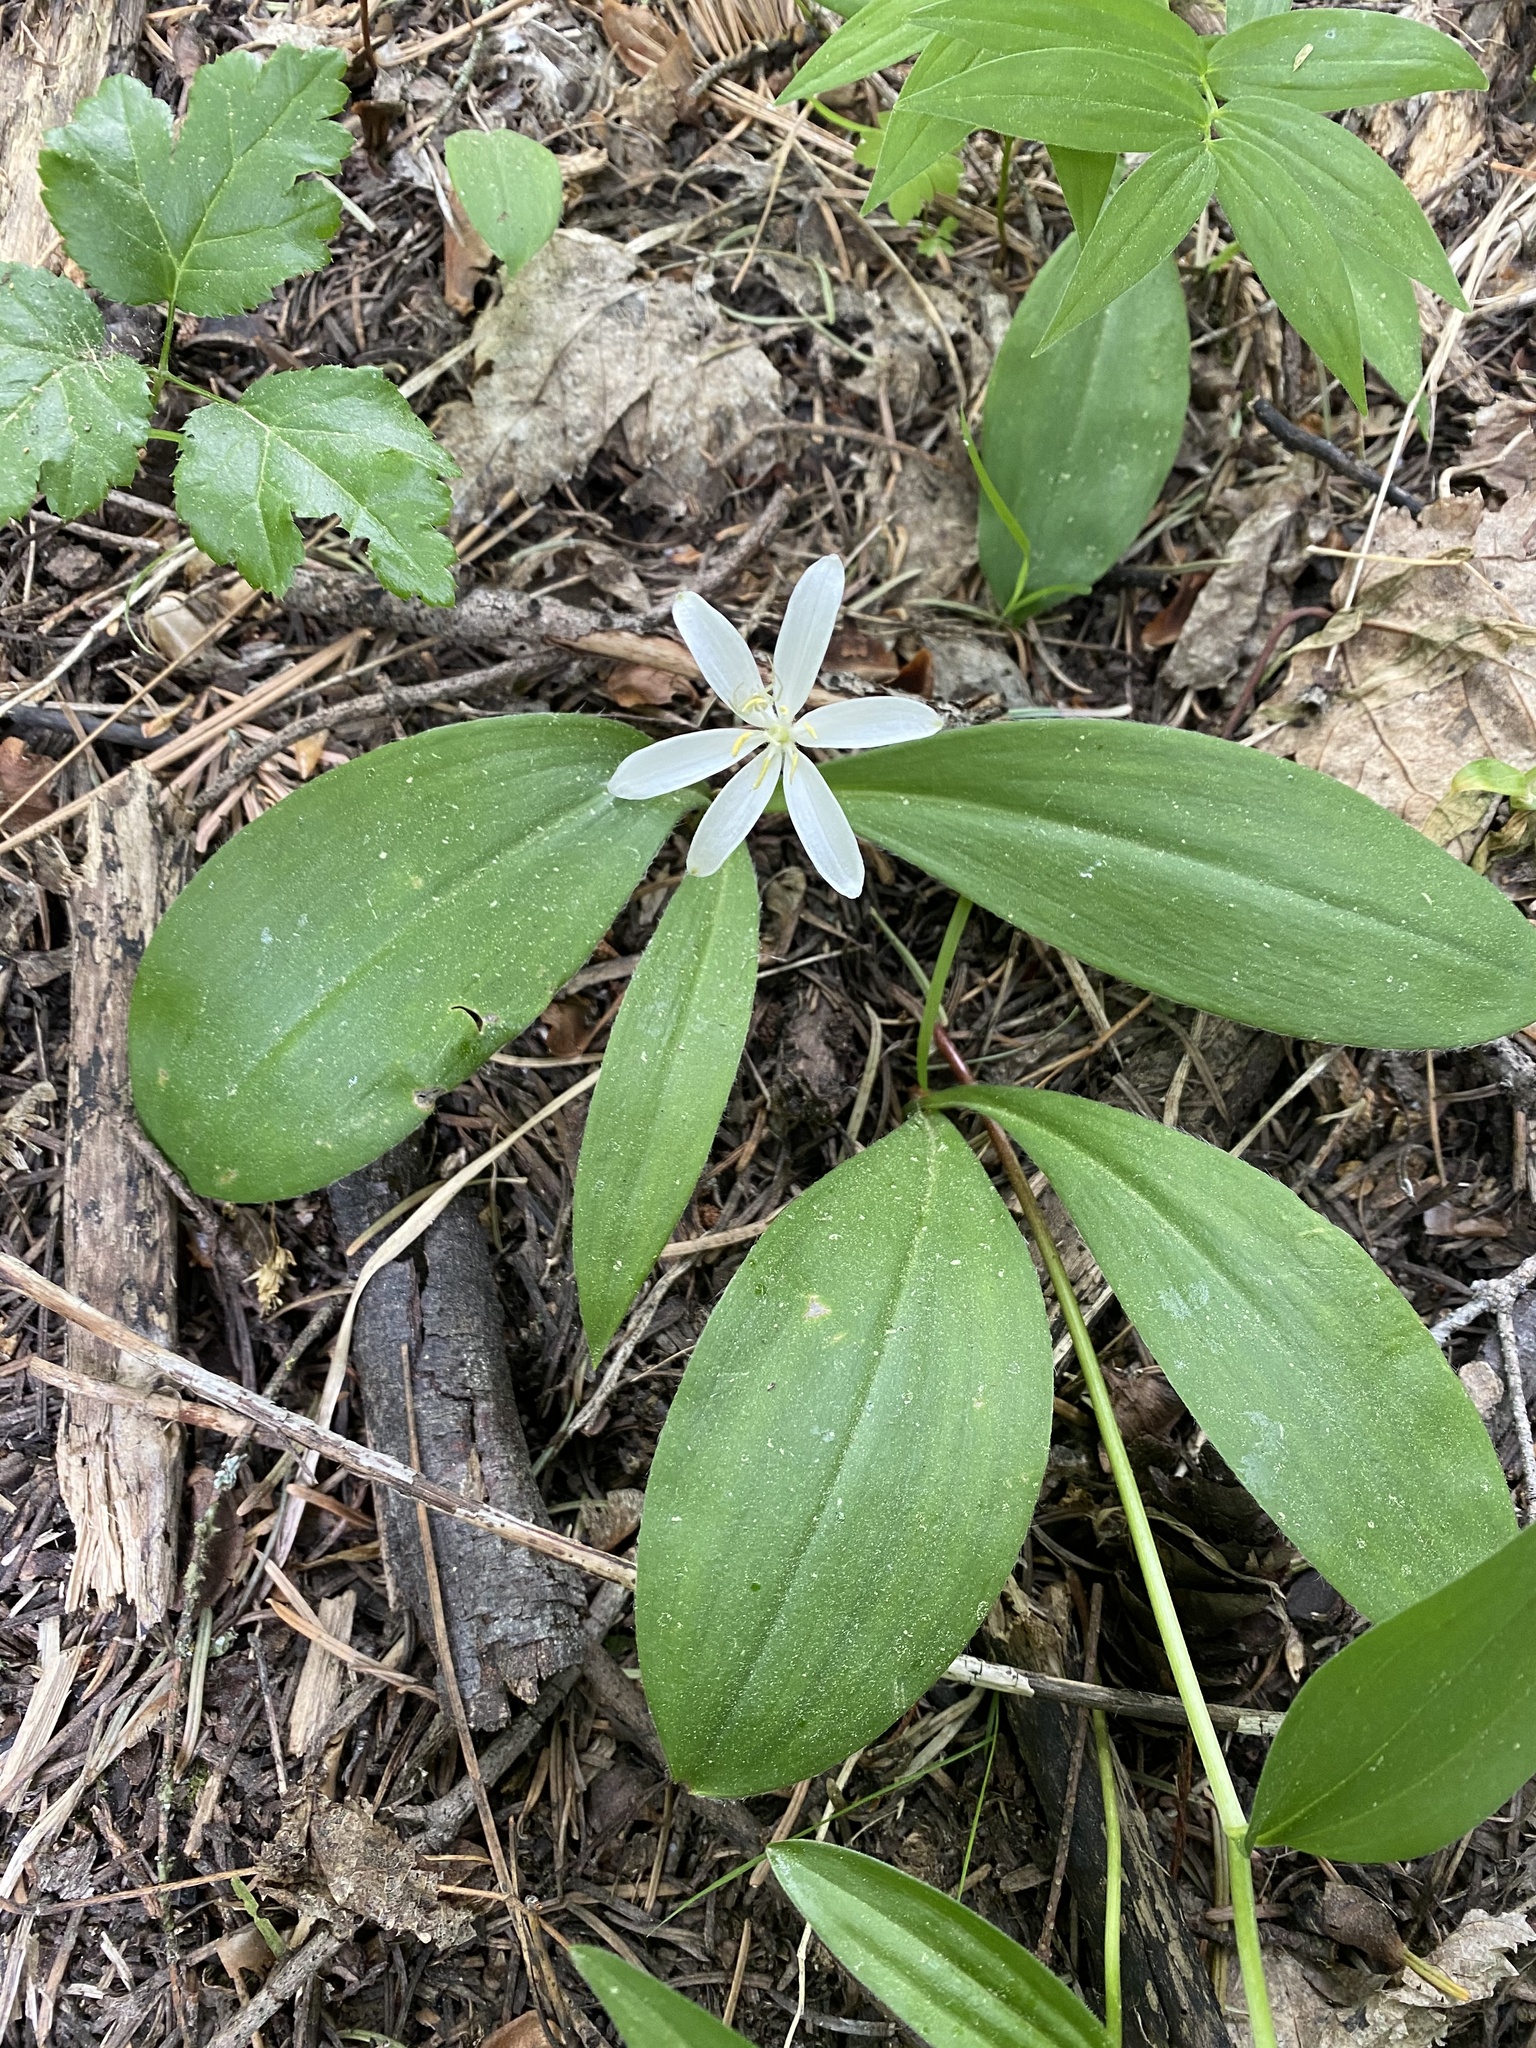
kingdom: Plantae
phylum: Tracheophyta
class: Liliopsida
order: Liliales
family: Liliaceae
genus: Clintonia
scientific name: Clintonia uniflora
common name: Queen's cup
